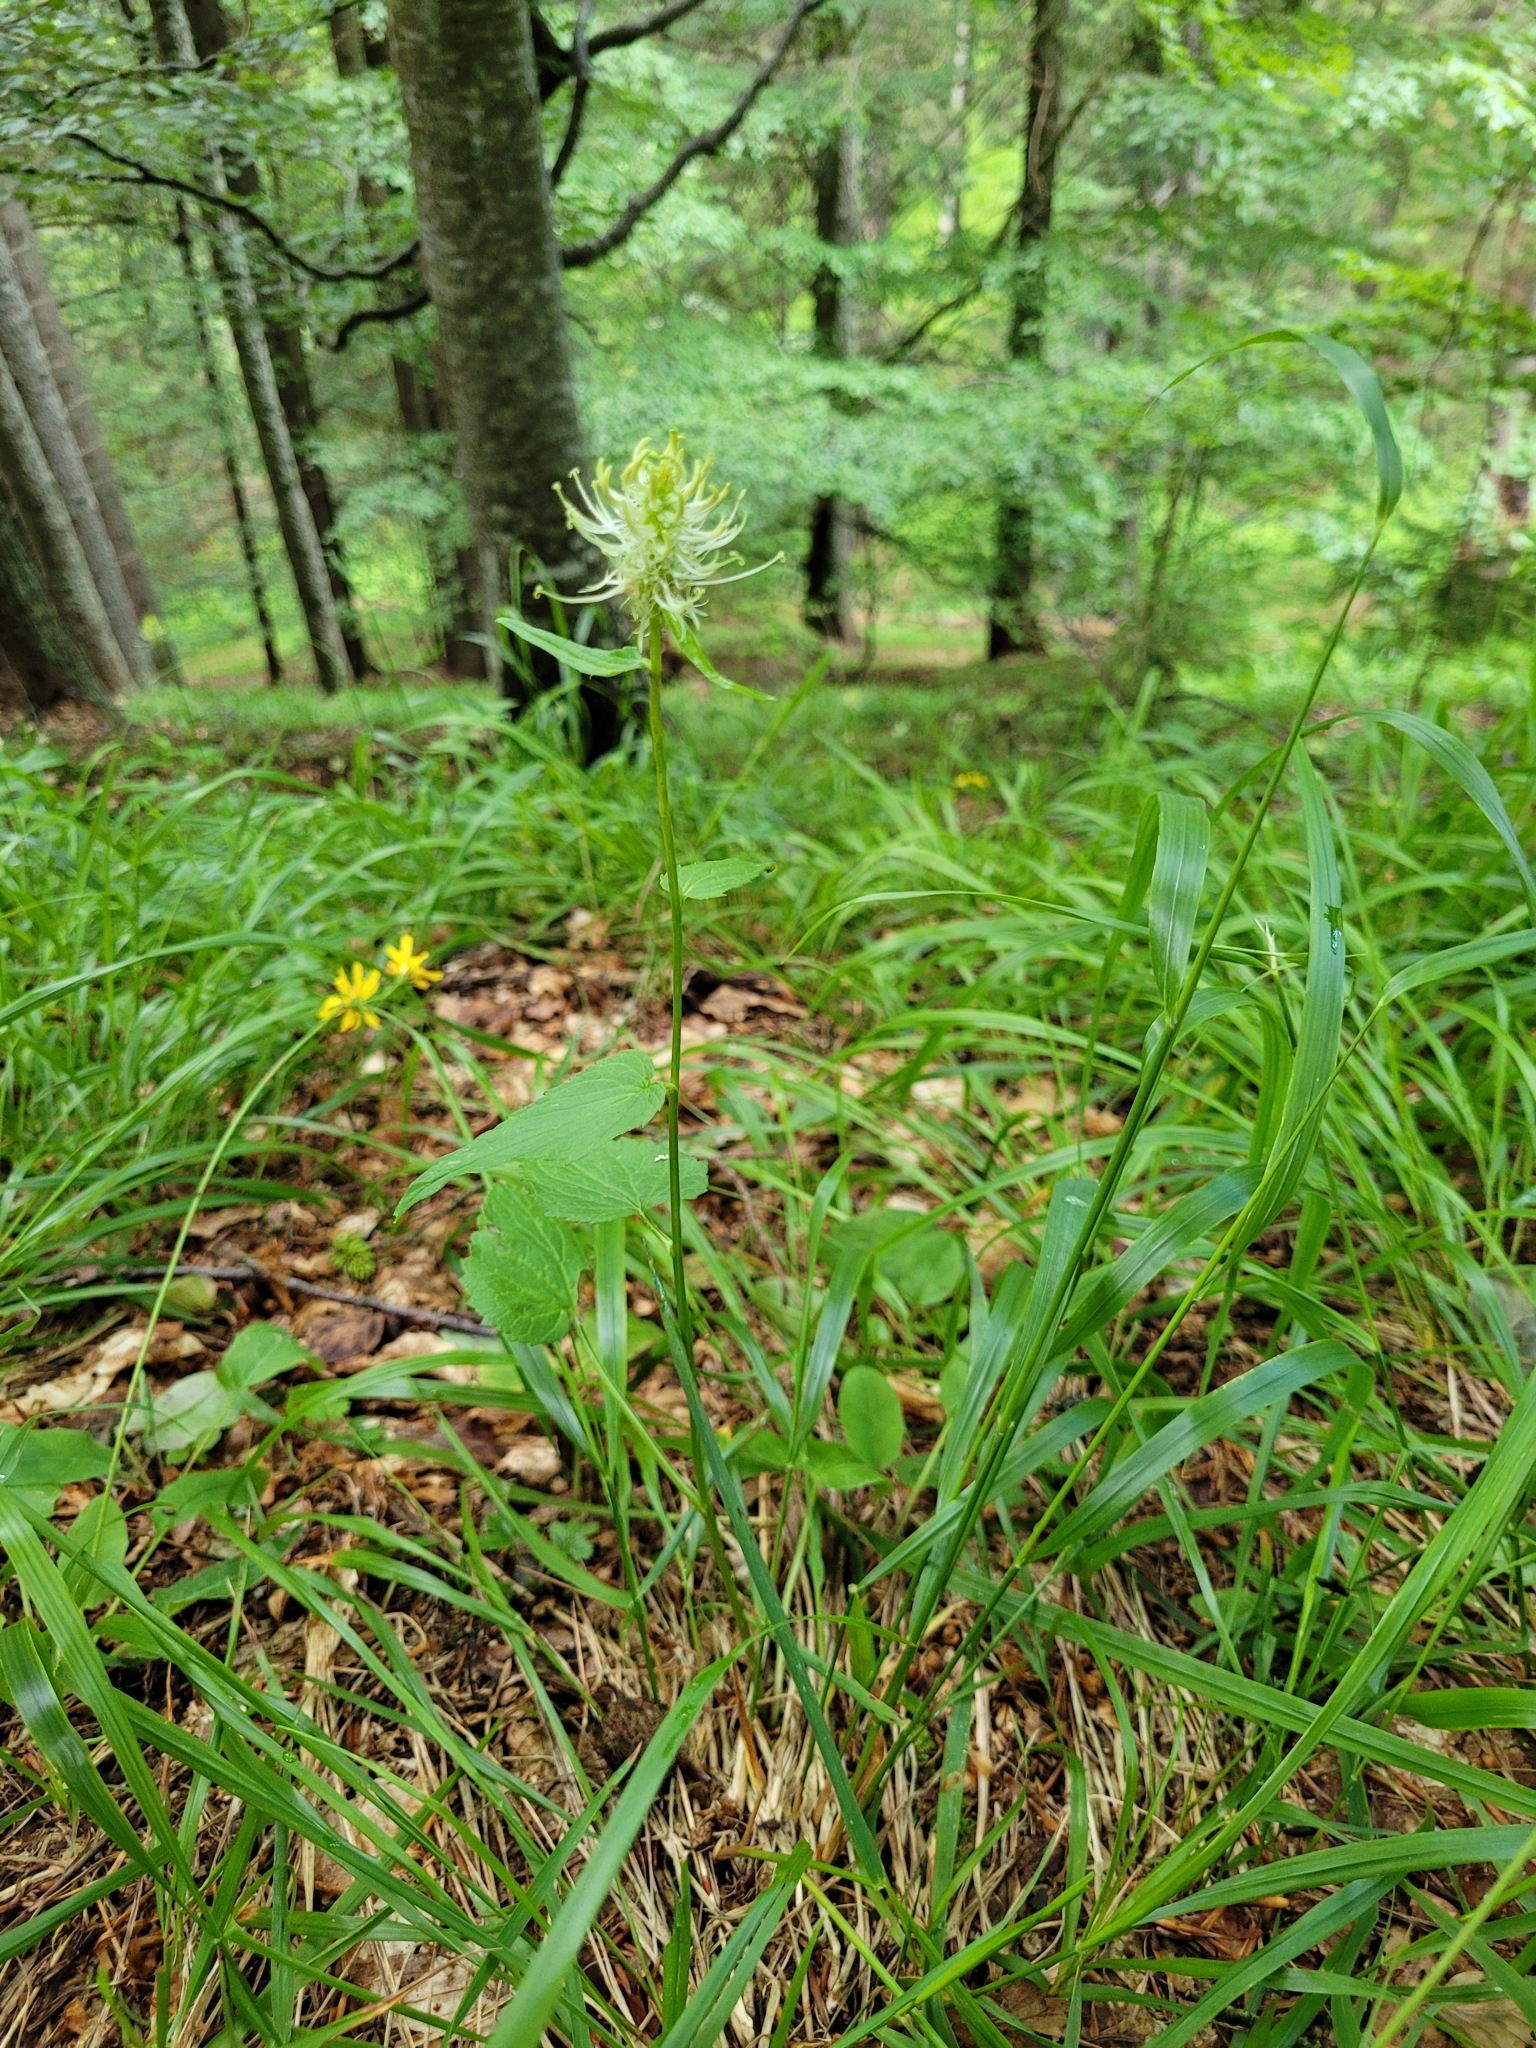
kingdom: Plantae
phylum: Tracheophyta
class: Magnoliopsida
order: Asterales
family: Campanulaceae
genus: Phyteuma
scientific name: Phyteuma spicatum
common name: Spiked rampion
